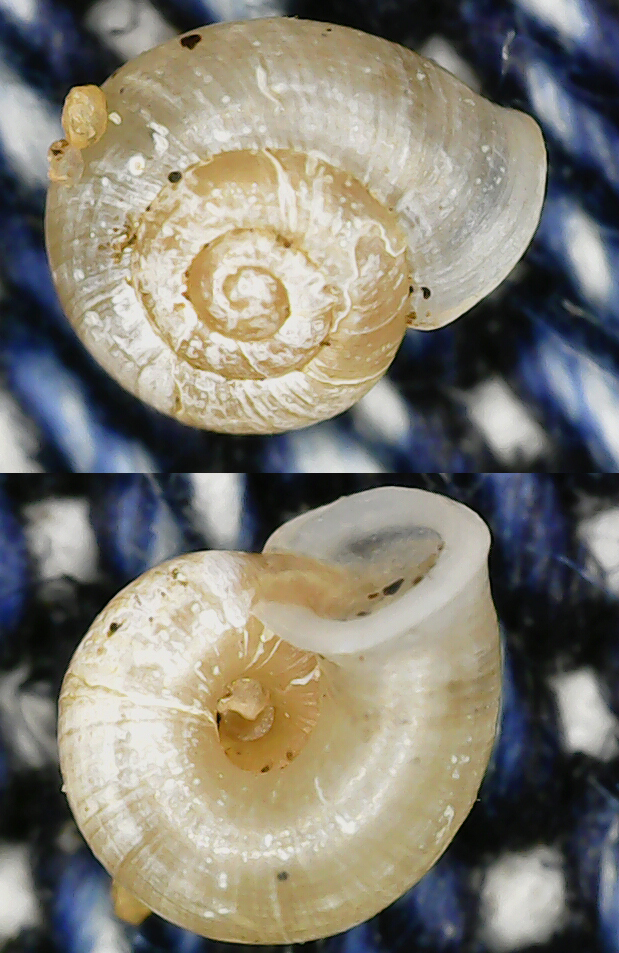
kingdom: Animalia
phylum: Mollusca
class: Gastropoda
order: Stylommatophora
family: Valloniidae
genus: Vallonia
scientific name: Vallonia pulchella
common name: Smooth grass snail
